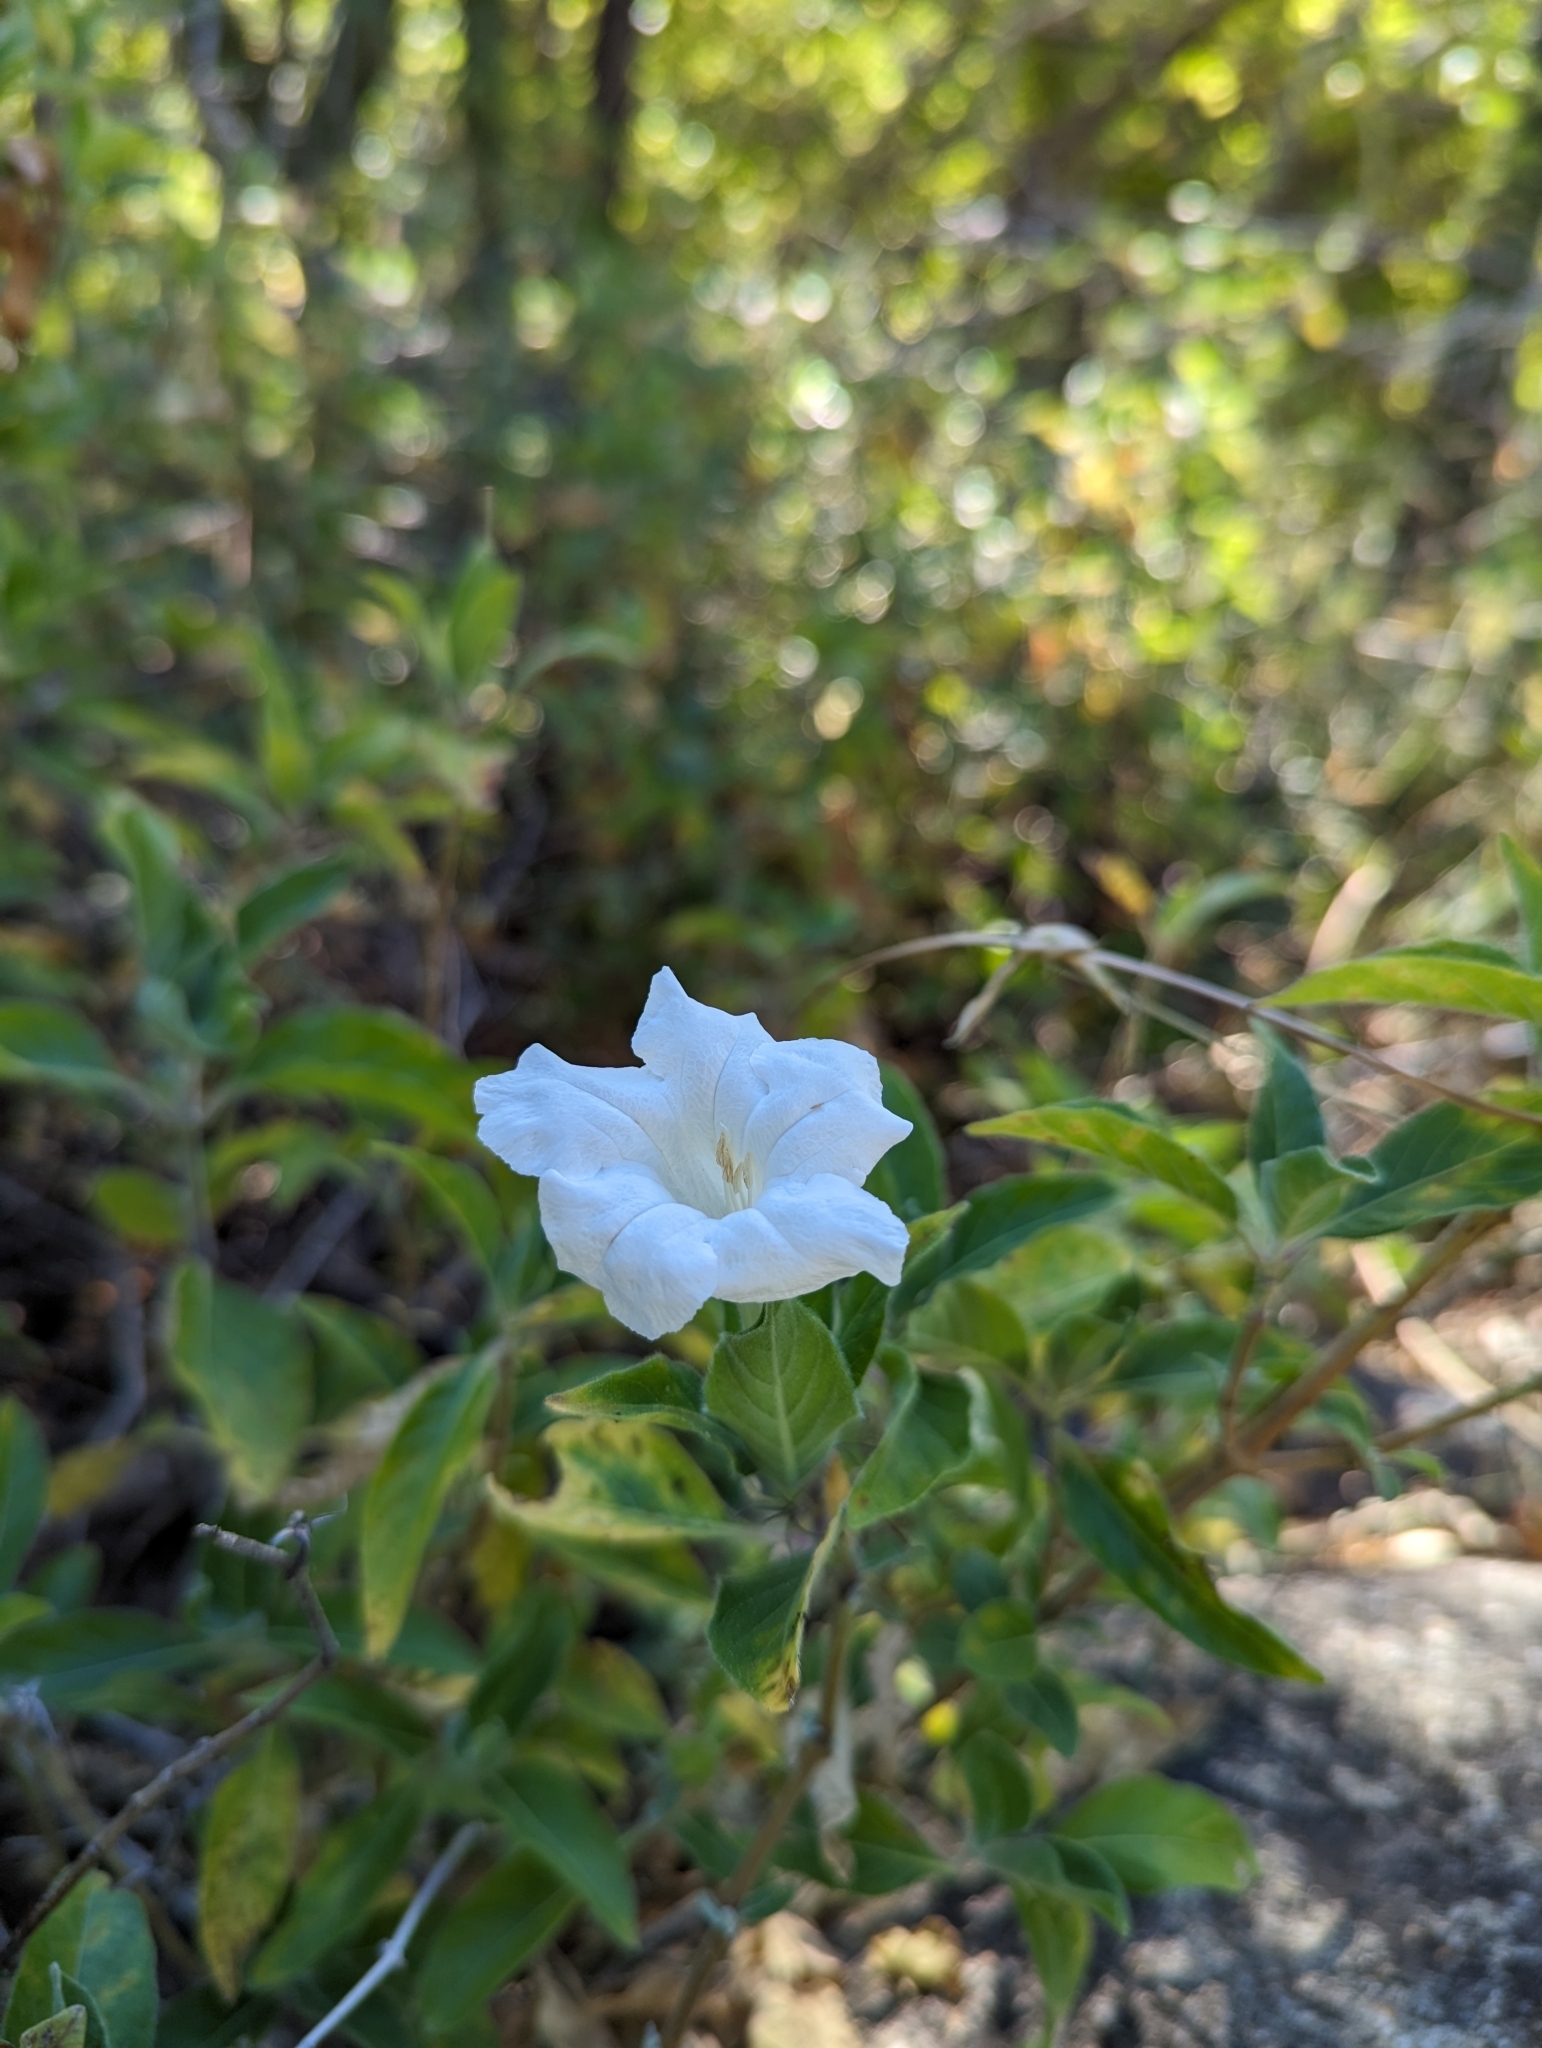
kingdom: Plantae
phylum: Tracheophyta
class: Magnoliopsida
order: Lamiales
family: Acanthaceae
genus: Ruellia
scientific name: Ruellia leucantha
